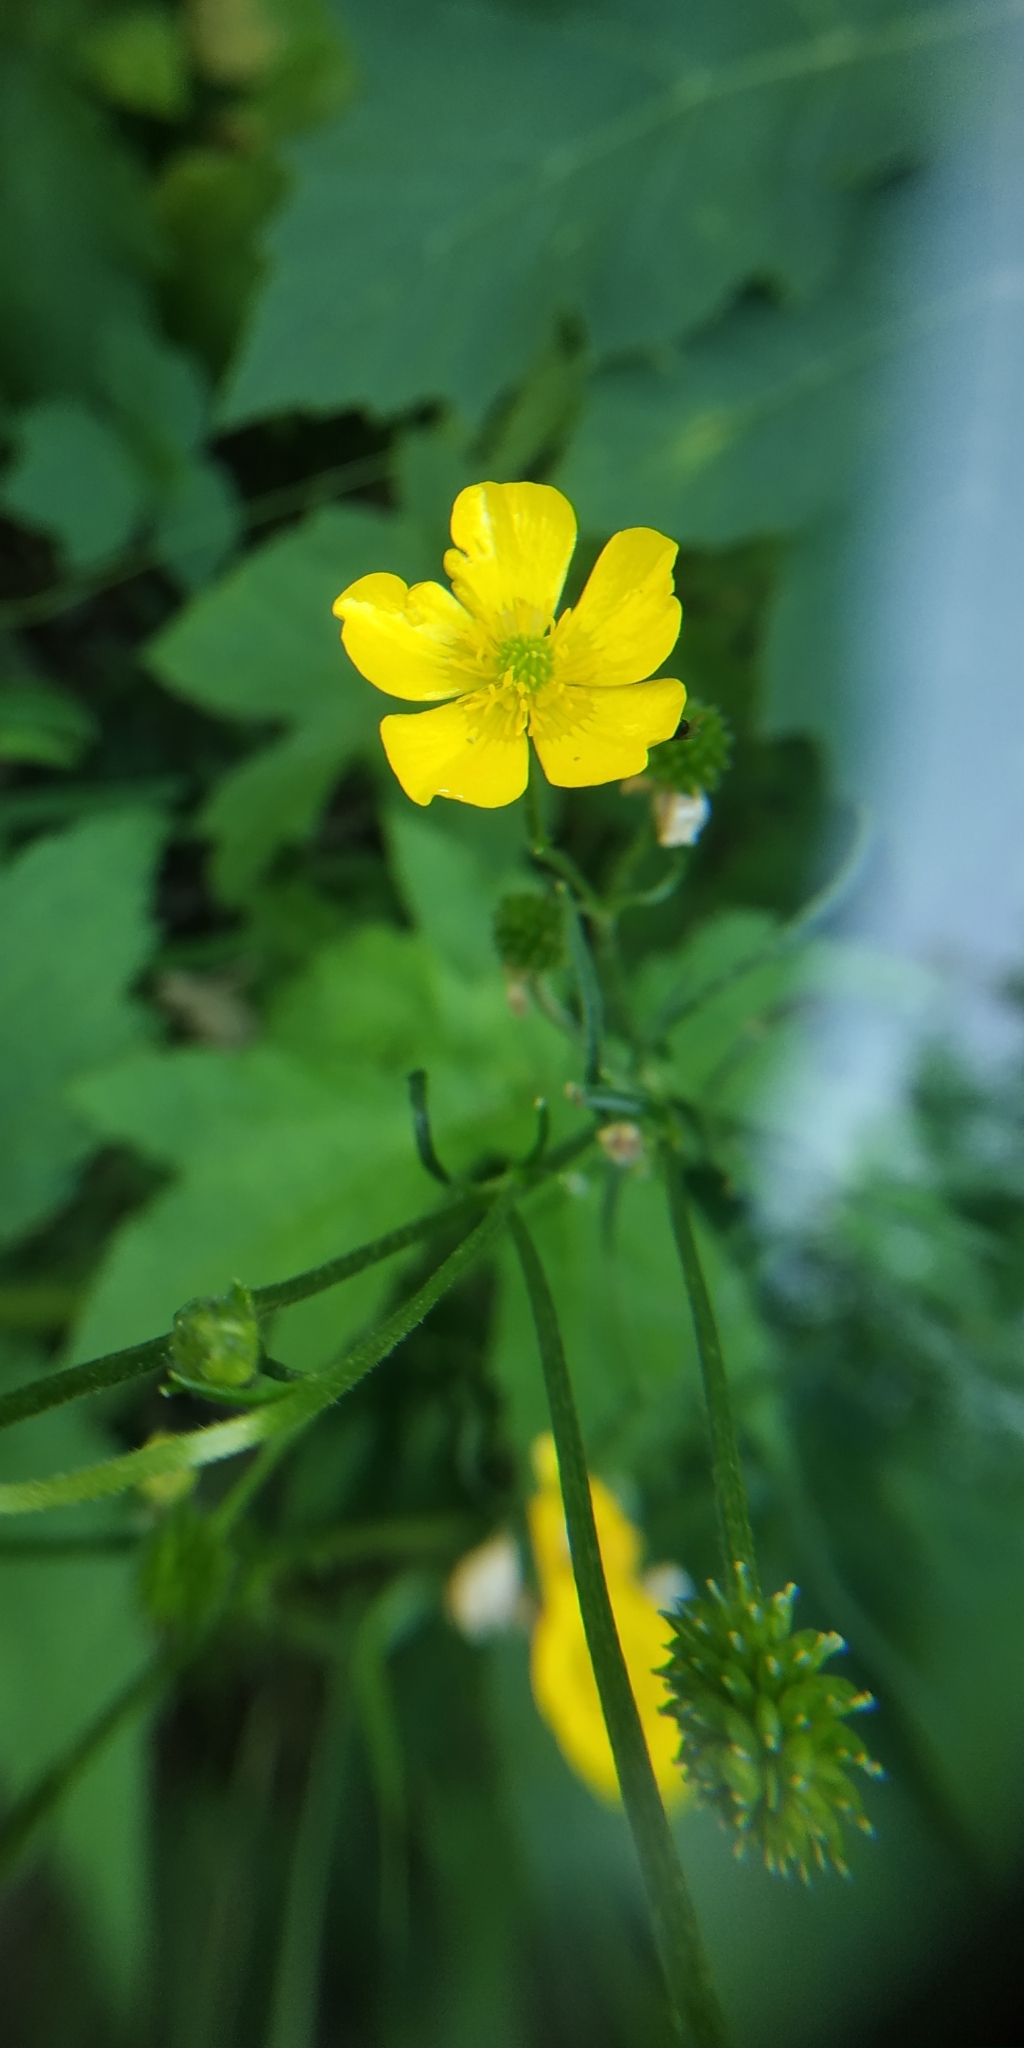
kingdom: Plantae
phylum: Tracheophyta
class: Magnoliopsida
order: Ranunculales
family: Ranunculaceae
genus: Ranunculus
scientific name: Ranunculus polyanthemos
